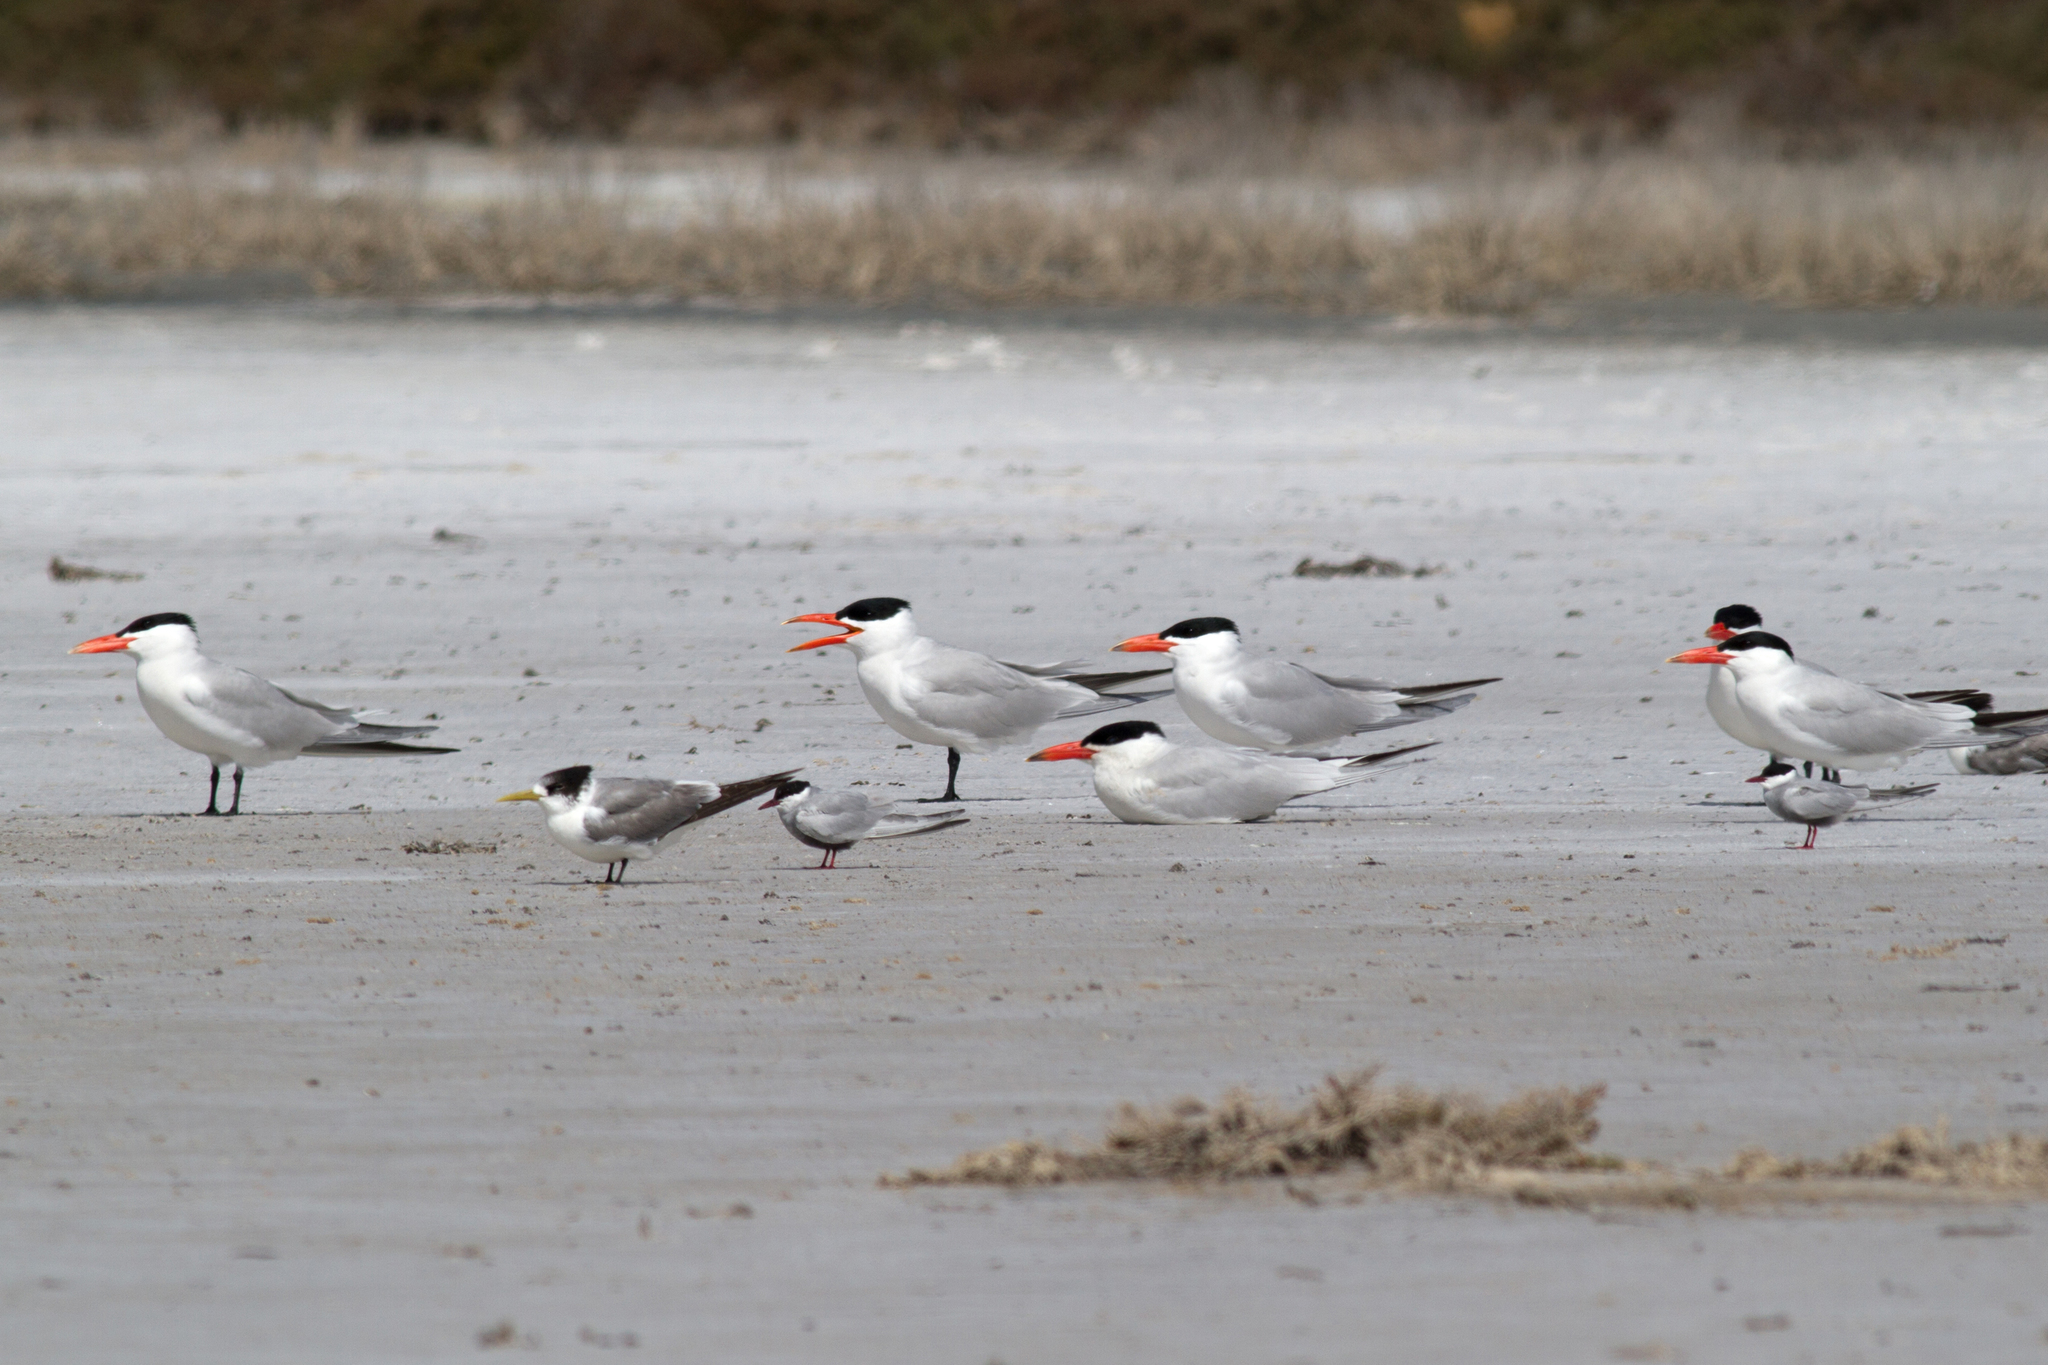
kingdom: Animalia
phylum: Chordata
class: Aves
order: Charadriiformes
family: Laridae
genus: Hydroprogne
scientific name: Hydroprogne caspia
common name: Caspian tern
